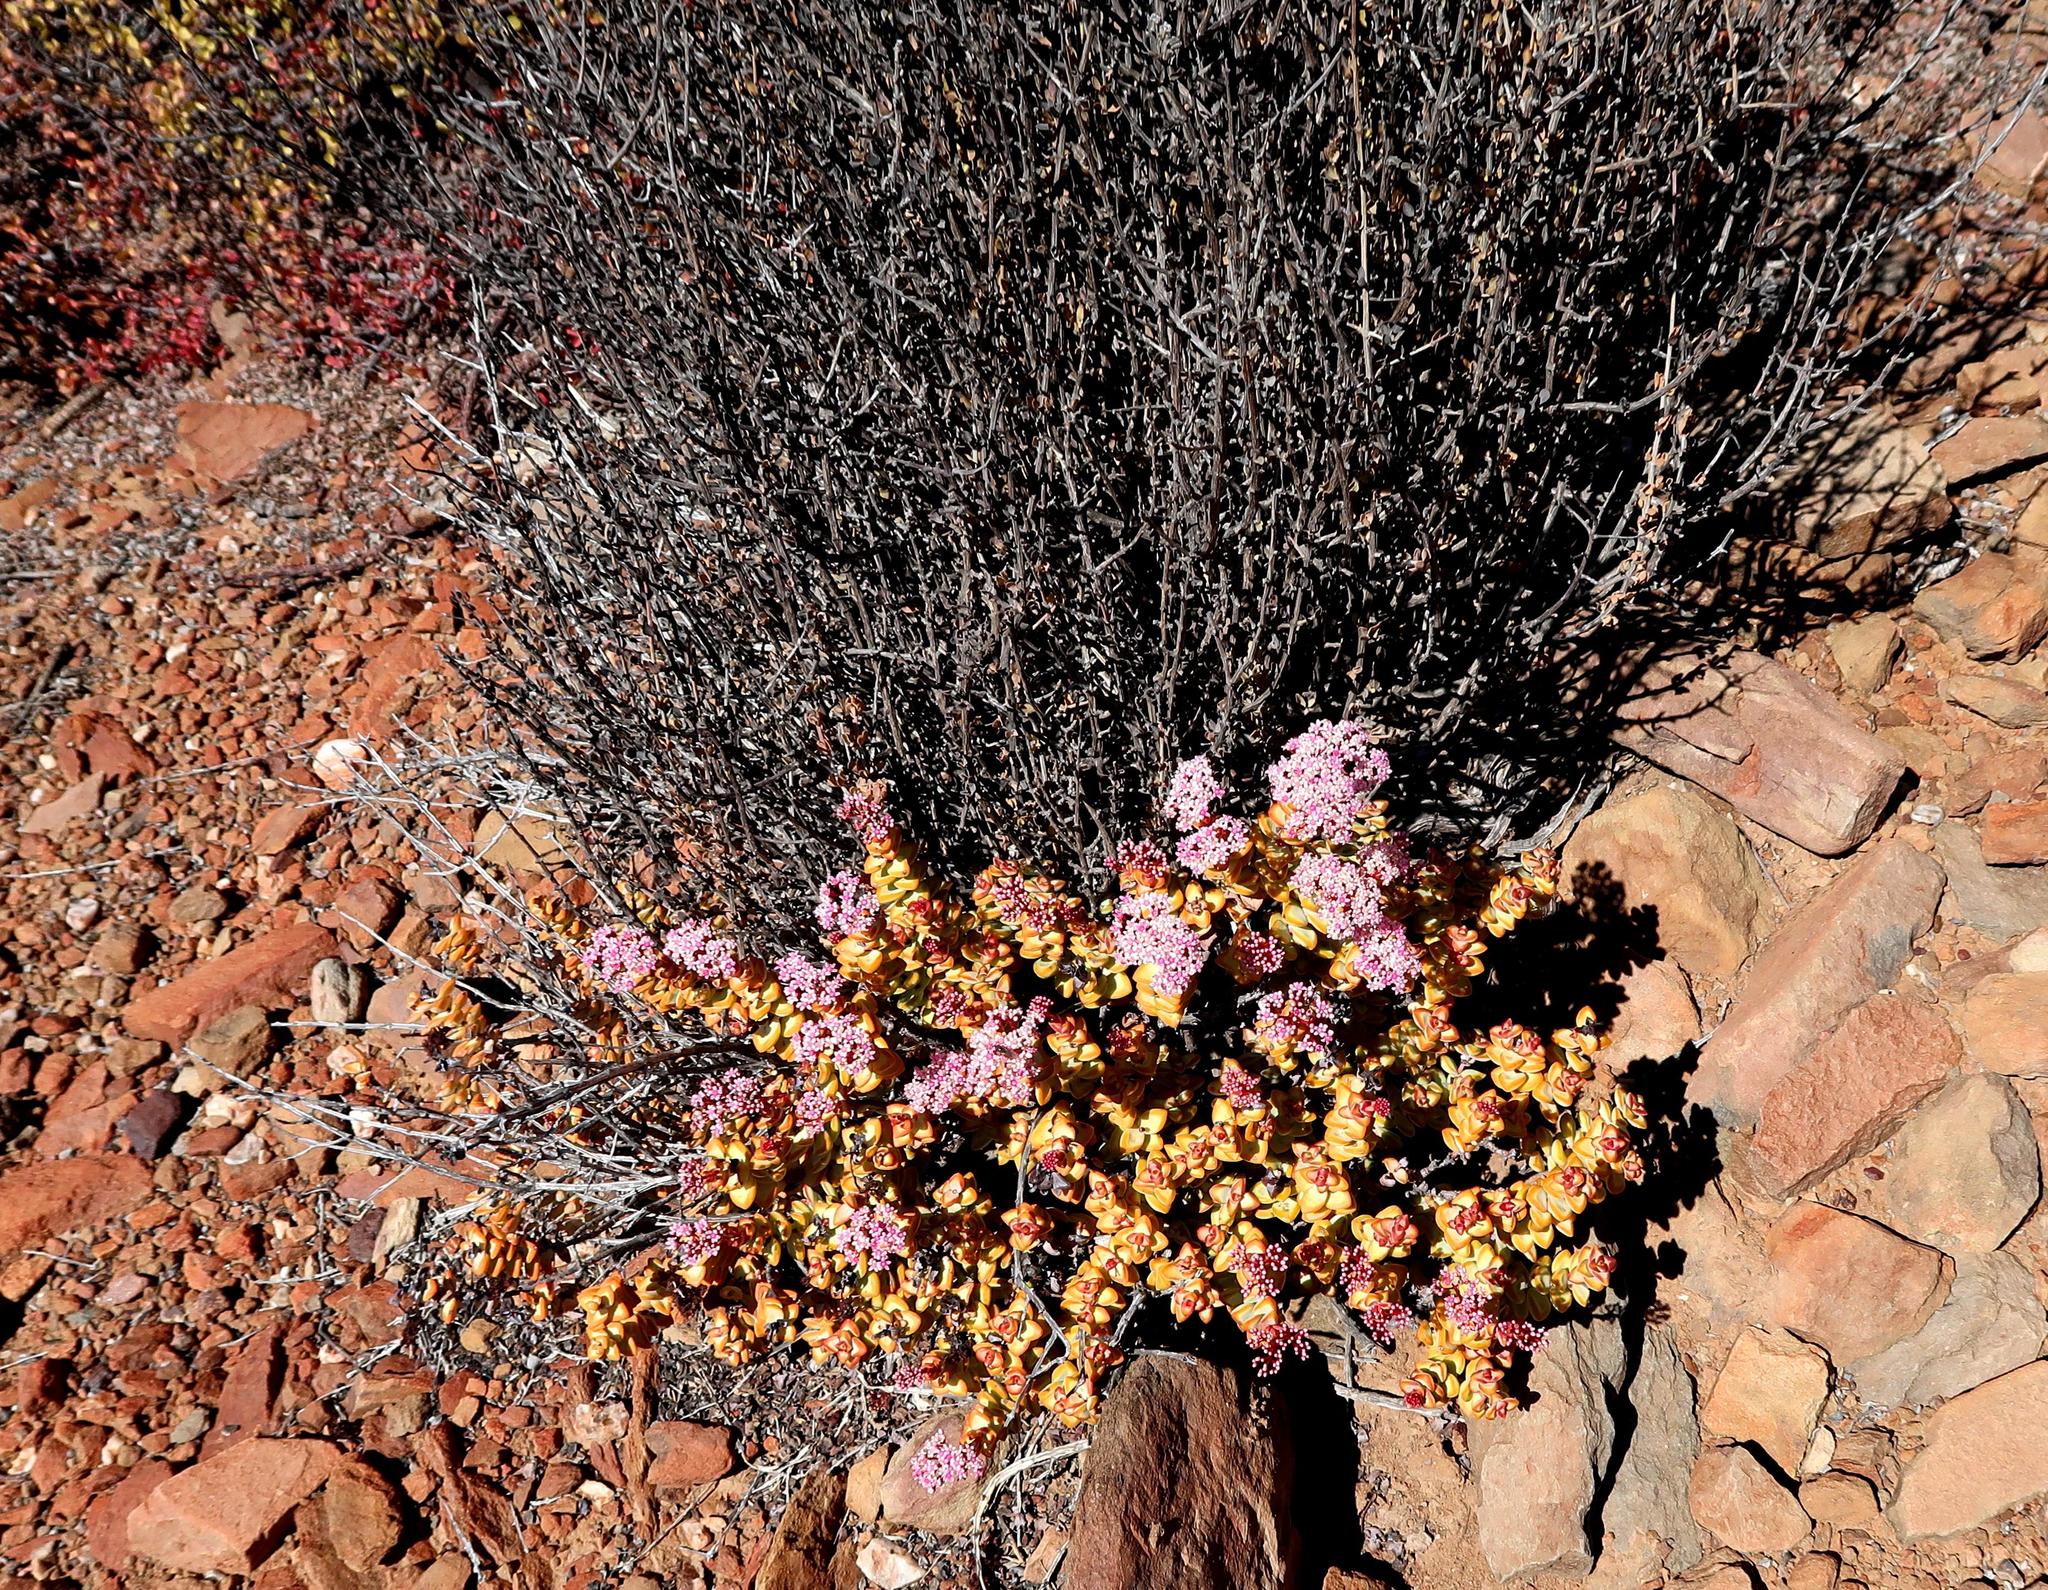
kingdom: Plantae
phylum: Tracheophyta
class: Magnoliopsida
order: Saxifragales
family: Crassulaceae
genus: Crassula
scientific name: Crassula rupestris
